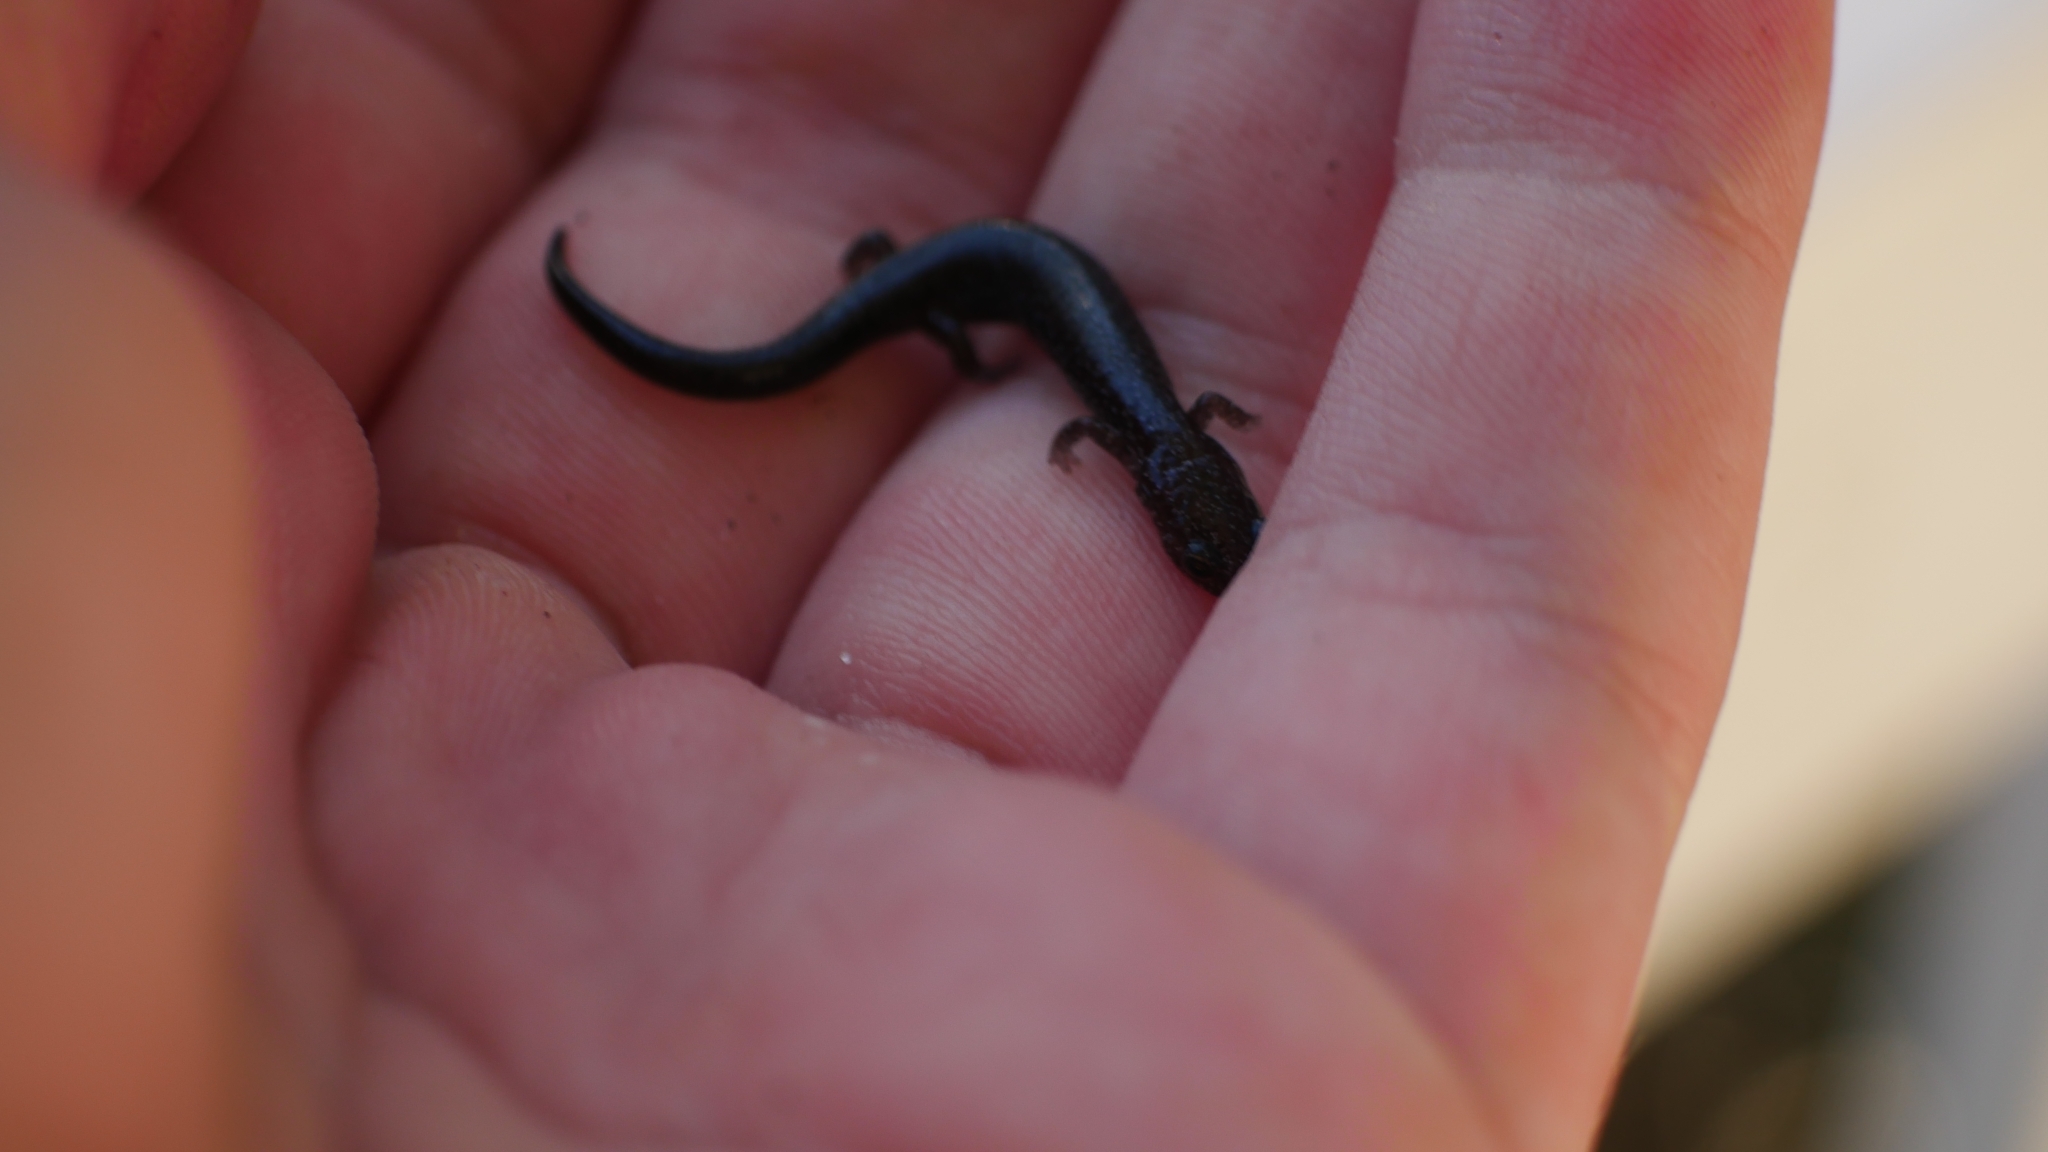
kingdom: Animalia
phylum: Chordata
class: Amphibia
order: Caudata
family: Plethodontidae
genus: Plethodon
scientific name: Plethodon cinereus
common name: Redback salamander
